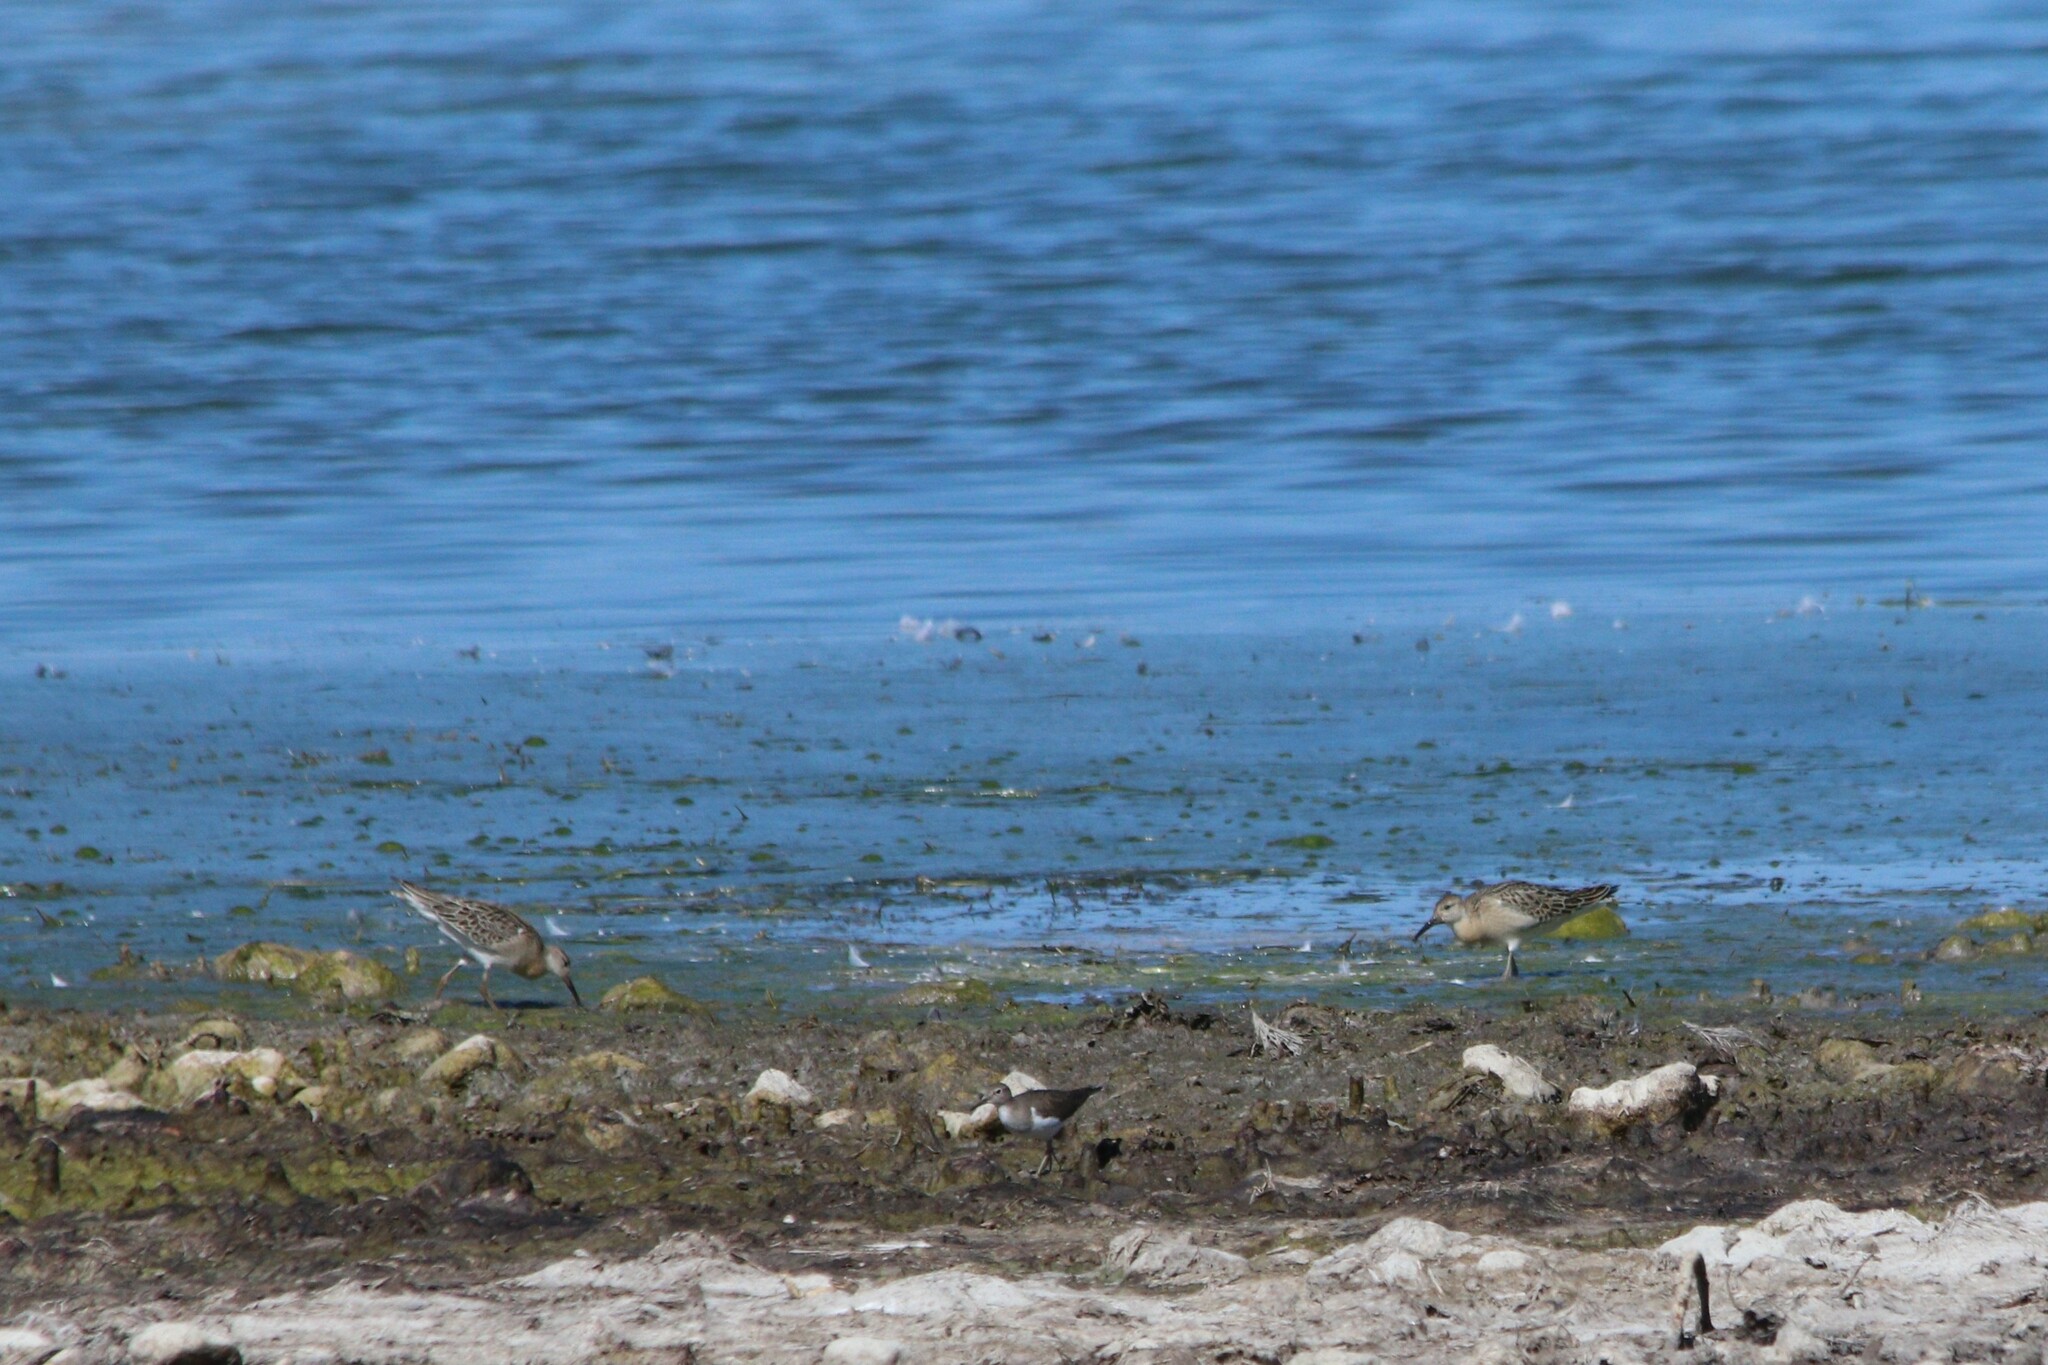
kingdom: Animalia
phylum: Chordata
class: Aves
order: Charadriiformes
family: Scolopacidae
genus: Calidris
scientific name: Calidris pugnax
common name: Ruff
